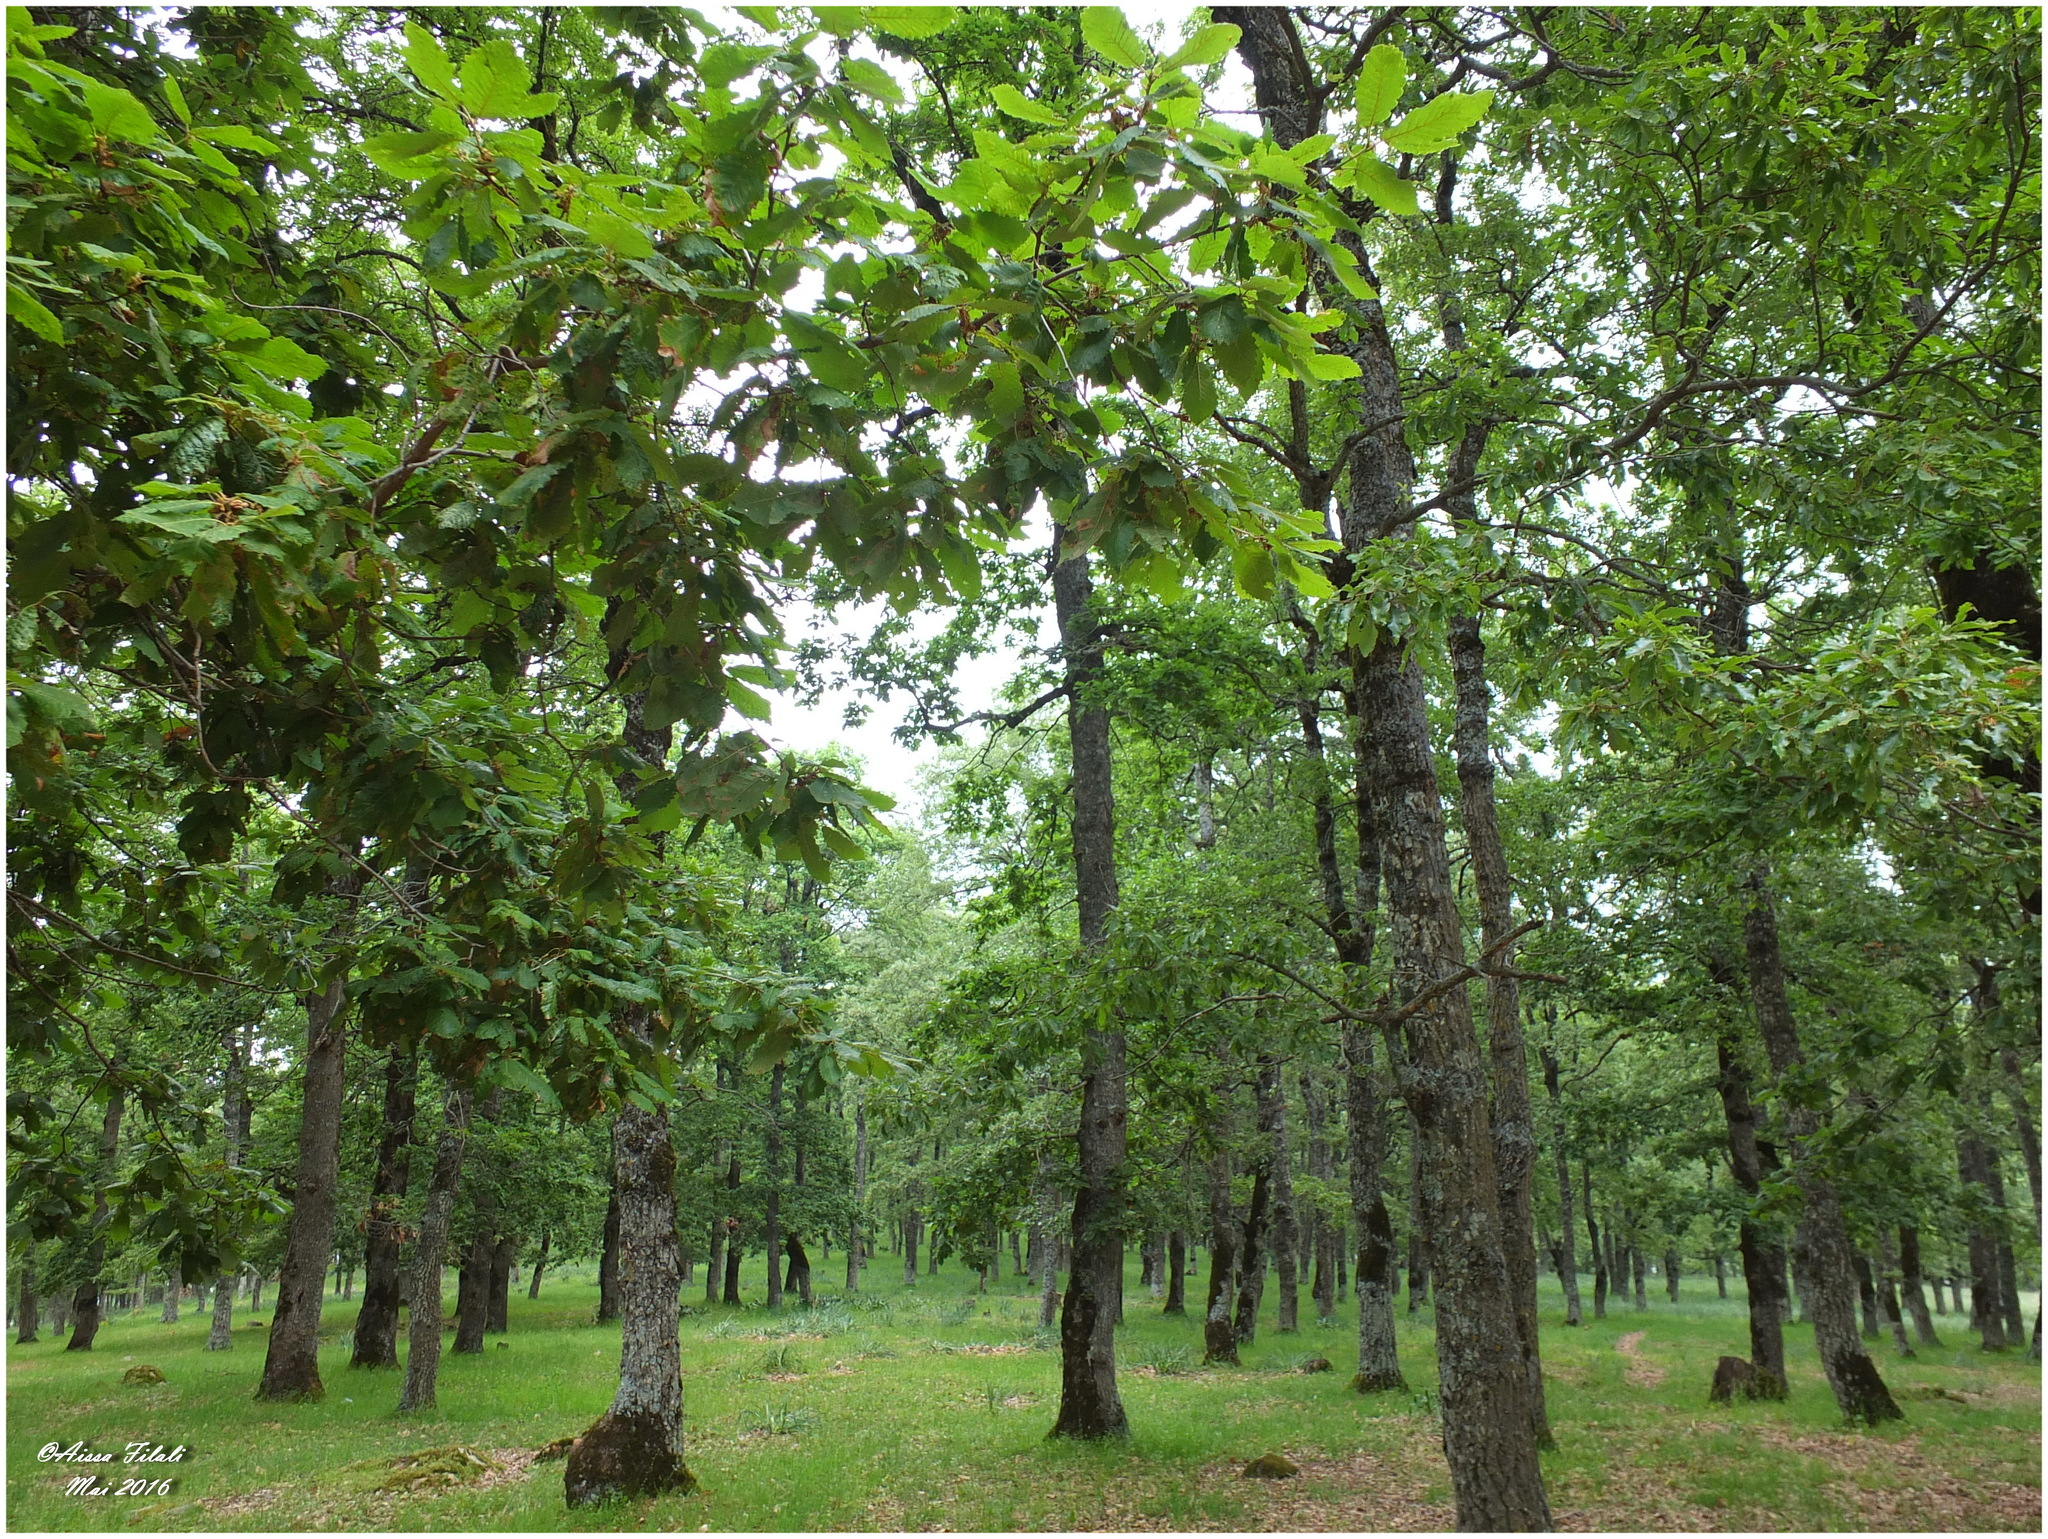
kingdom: Plantae
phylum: Tracheophyta
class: Magnoliopsida
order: Fagales
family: Fagaceae
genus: Quercus
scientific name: Quercus canariensis
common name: Algerian oak
